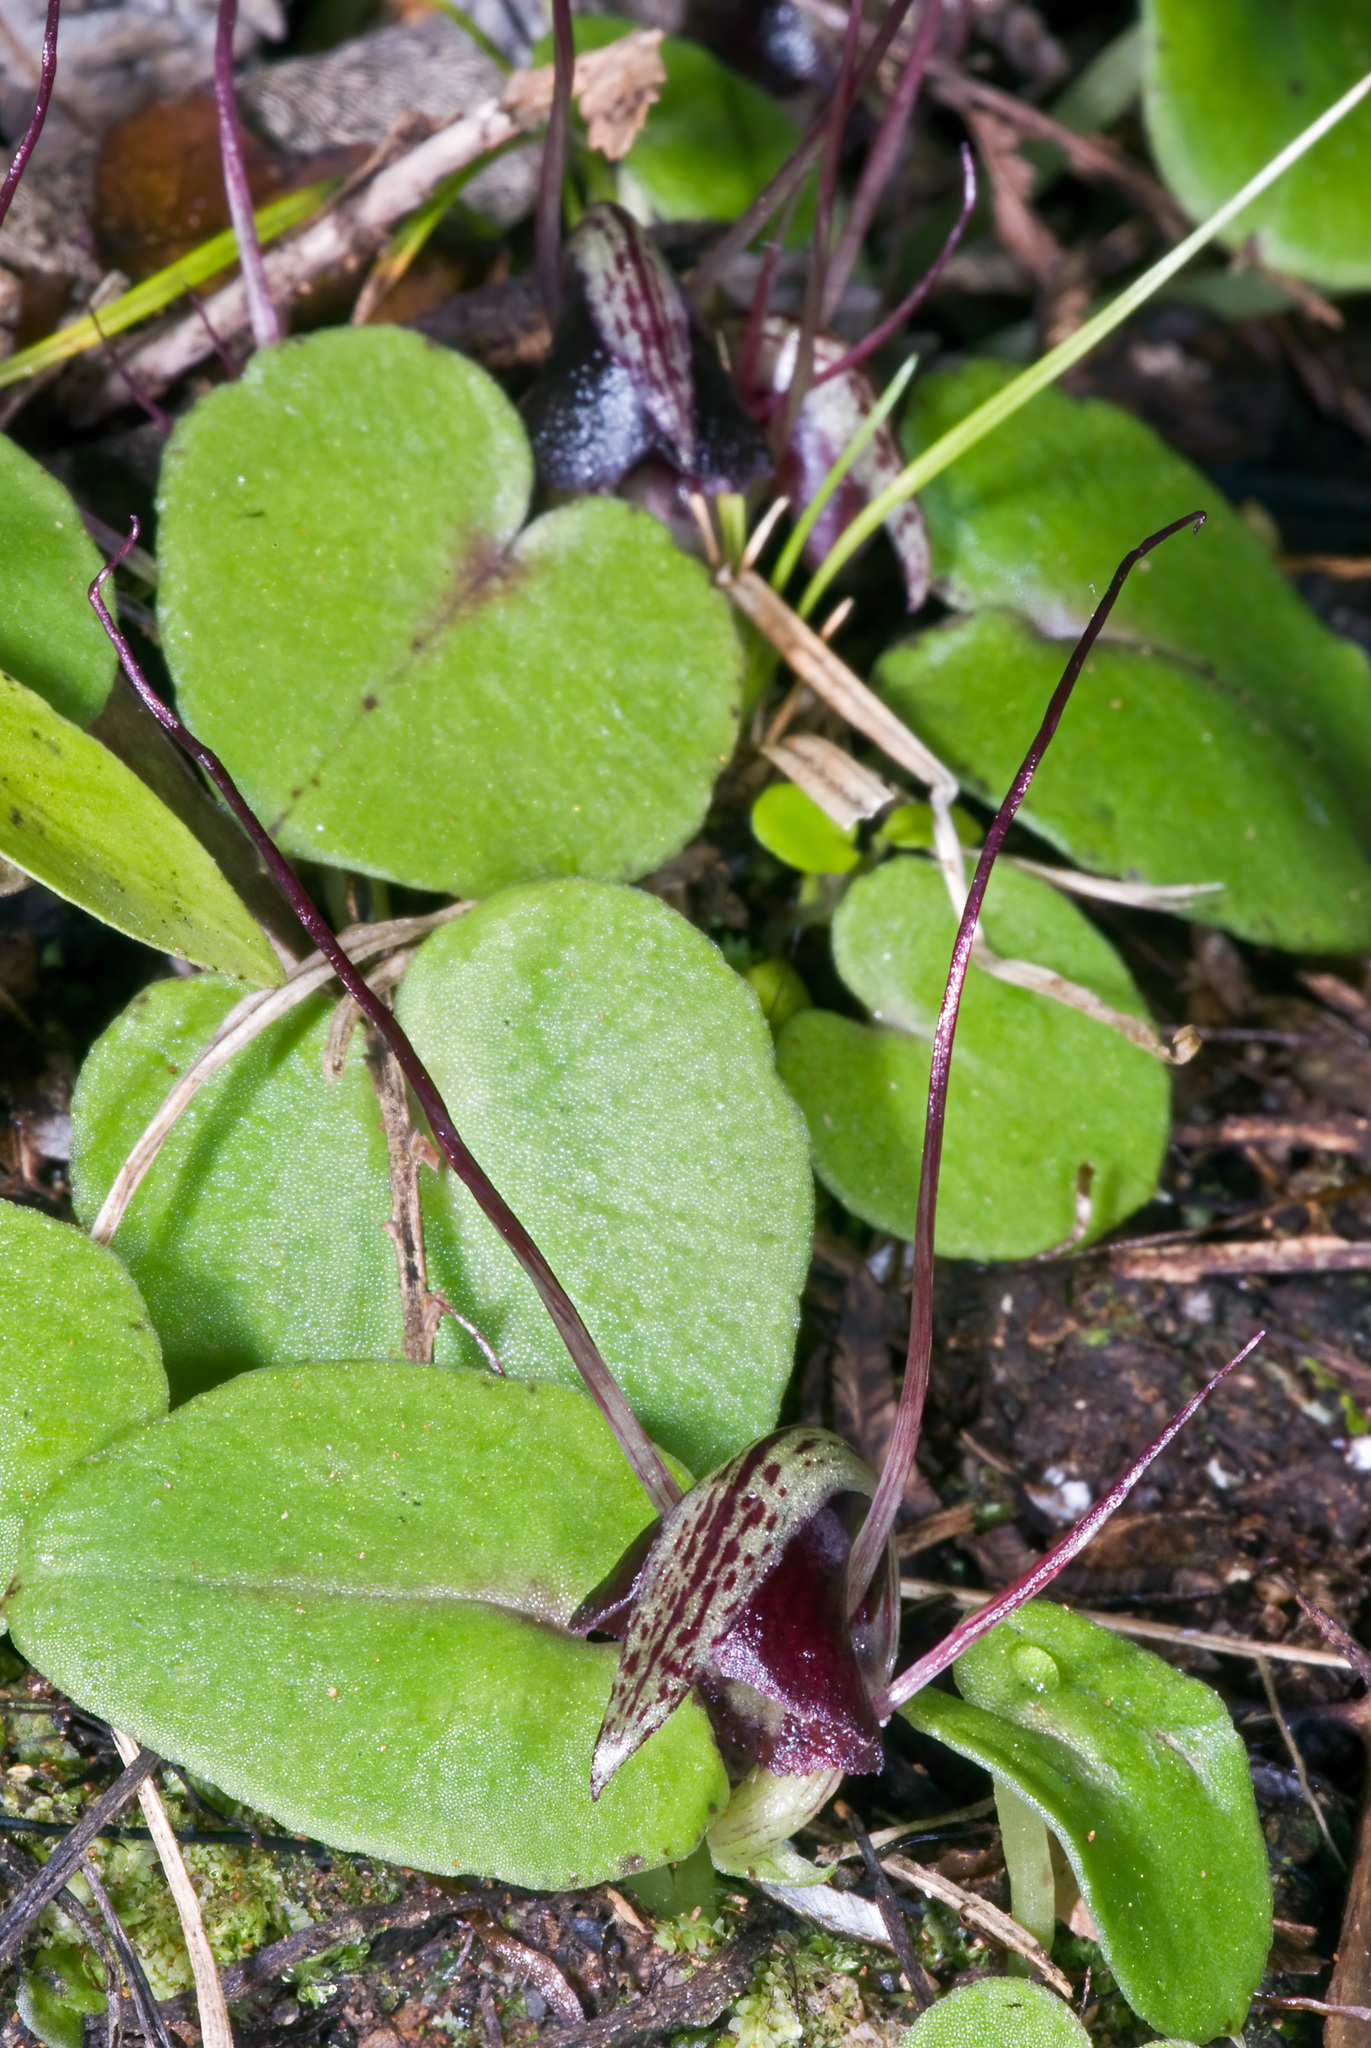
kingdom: Plantae
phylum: Tracheophyta
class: Liliopsida
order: Asparagales
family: Orchidaceae
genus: Corybas
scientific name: Corybas macranthus
